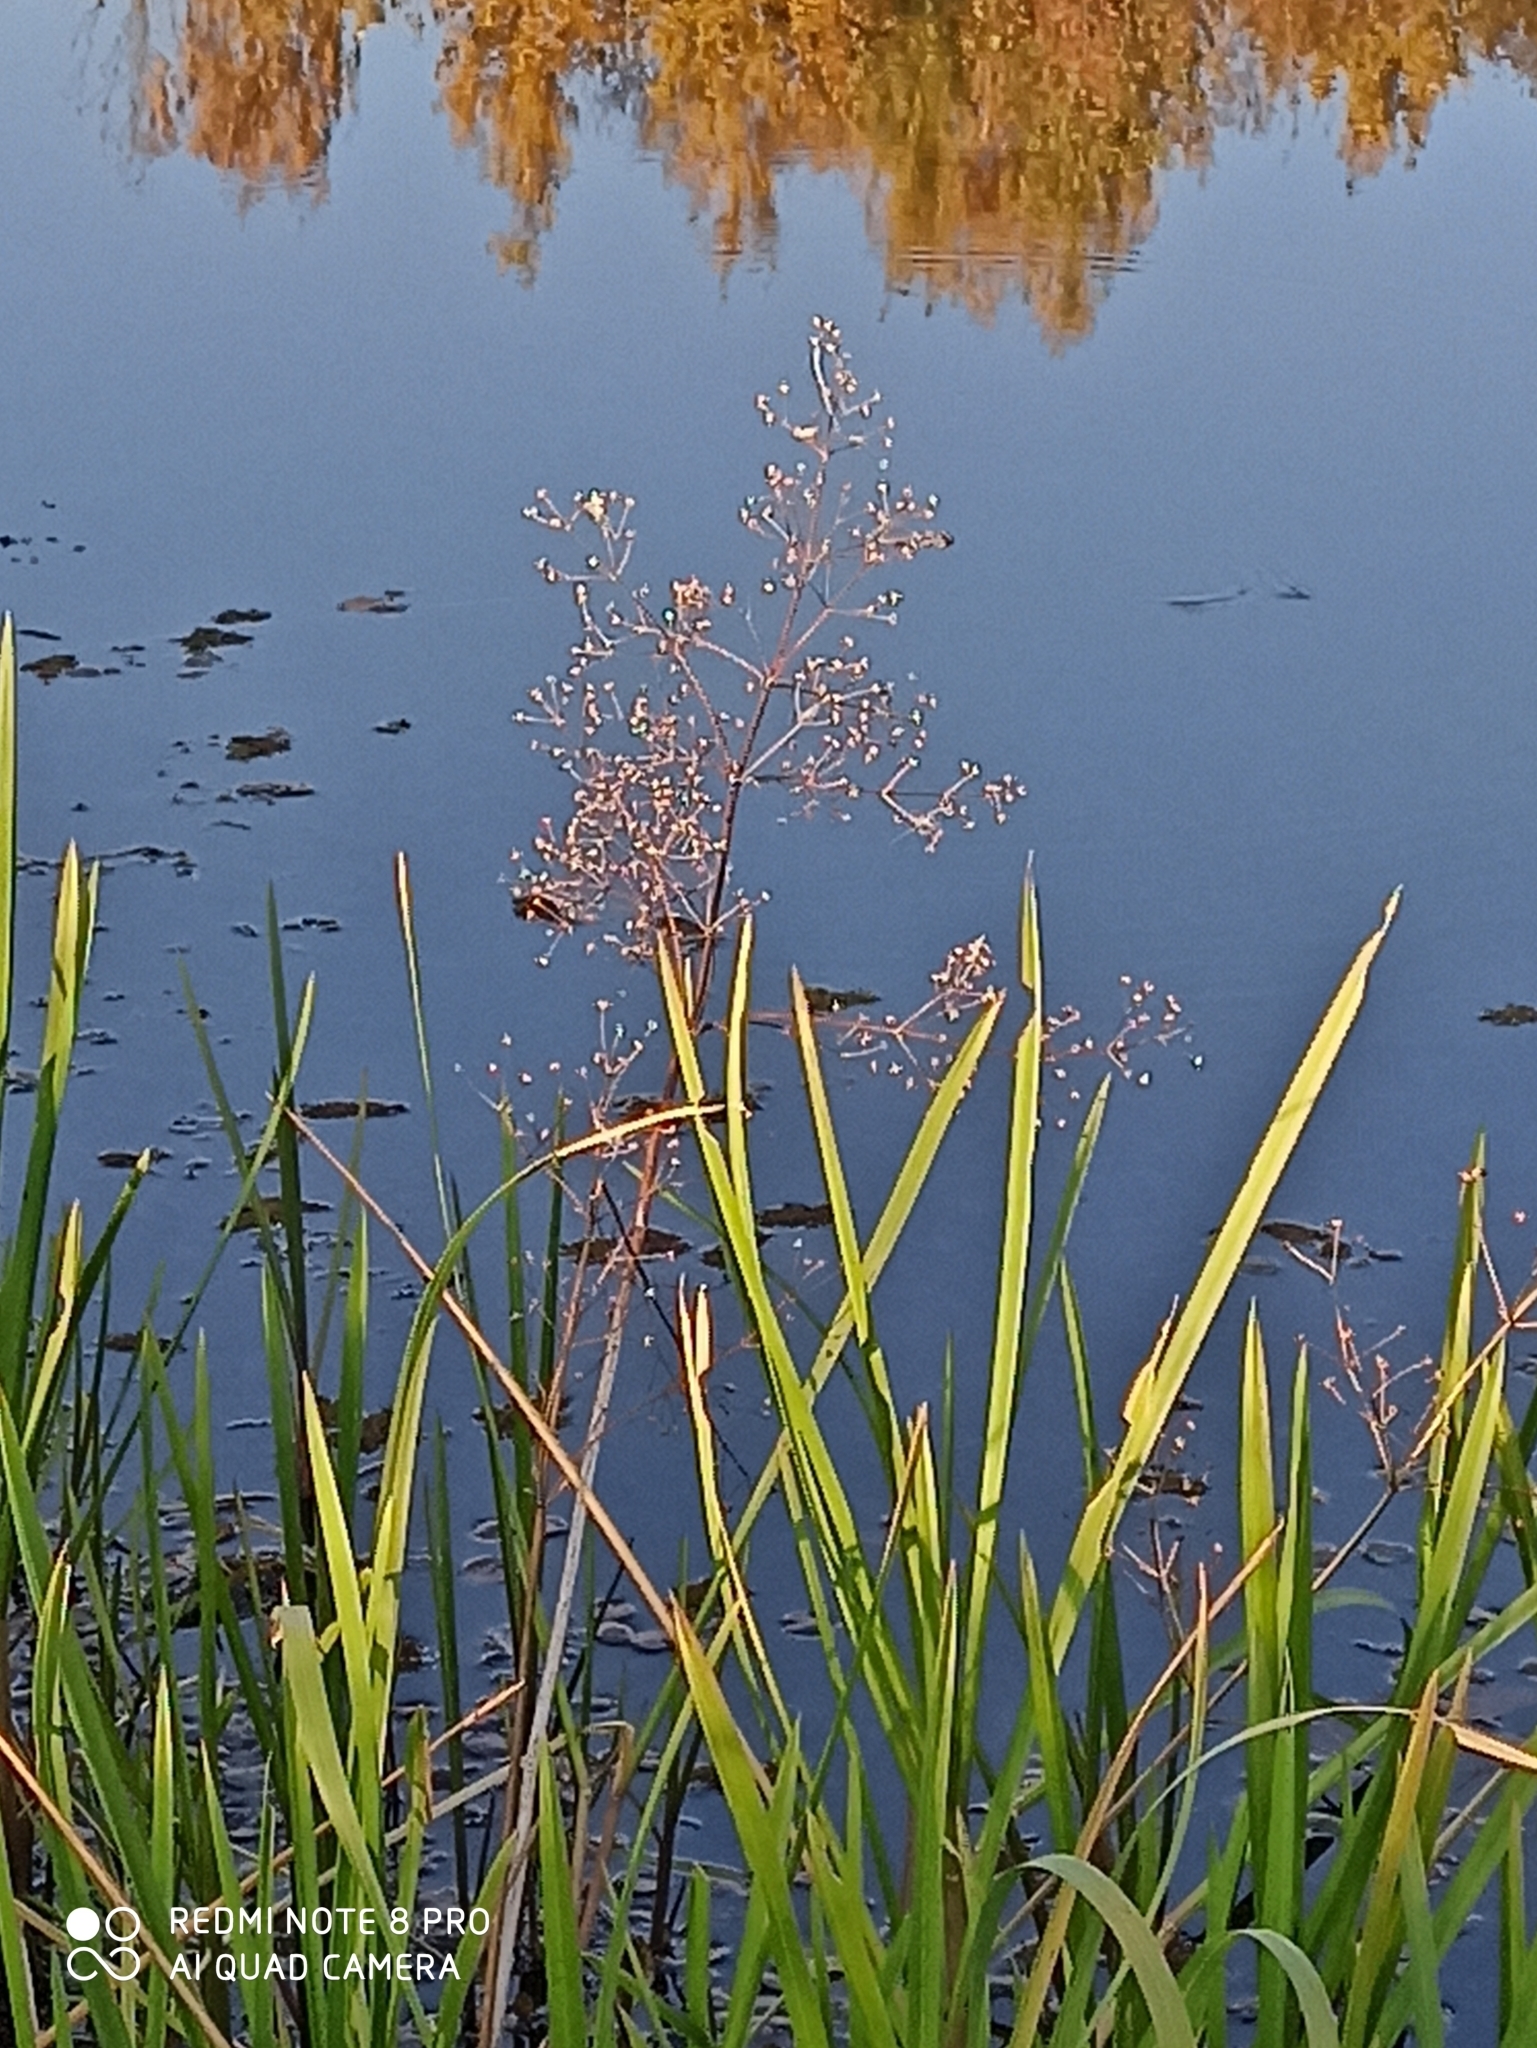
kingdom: Plantae
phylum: Tracheophyta
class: Liliopsida
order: Alismatales
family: Alismataceae
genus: Alisma
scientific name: Alisma plantago-aquatica
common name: Water-plantain
